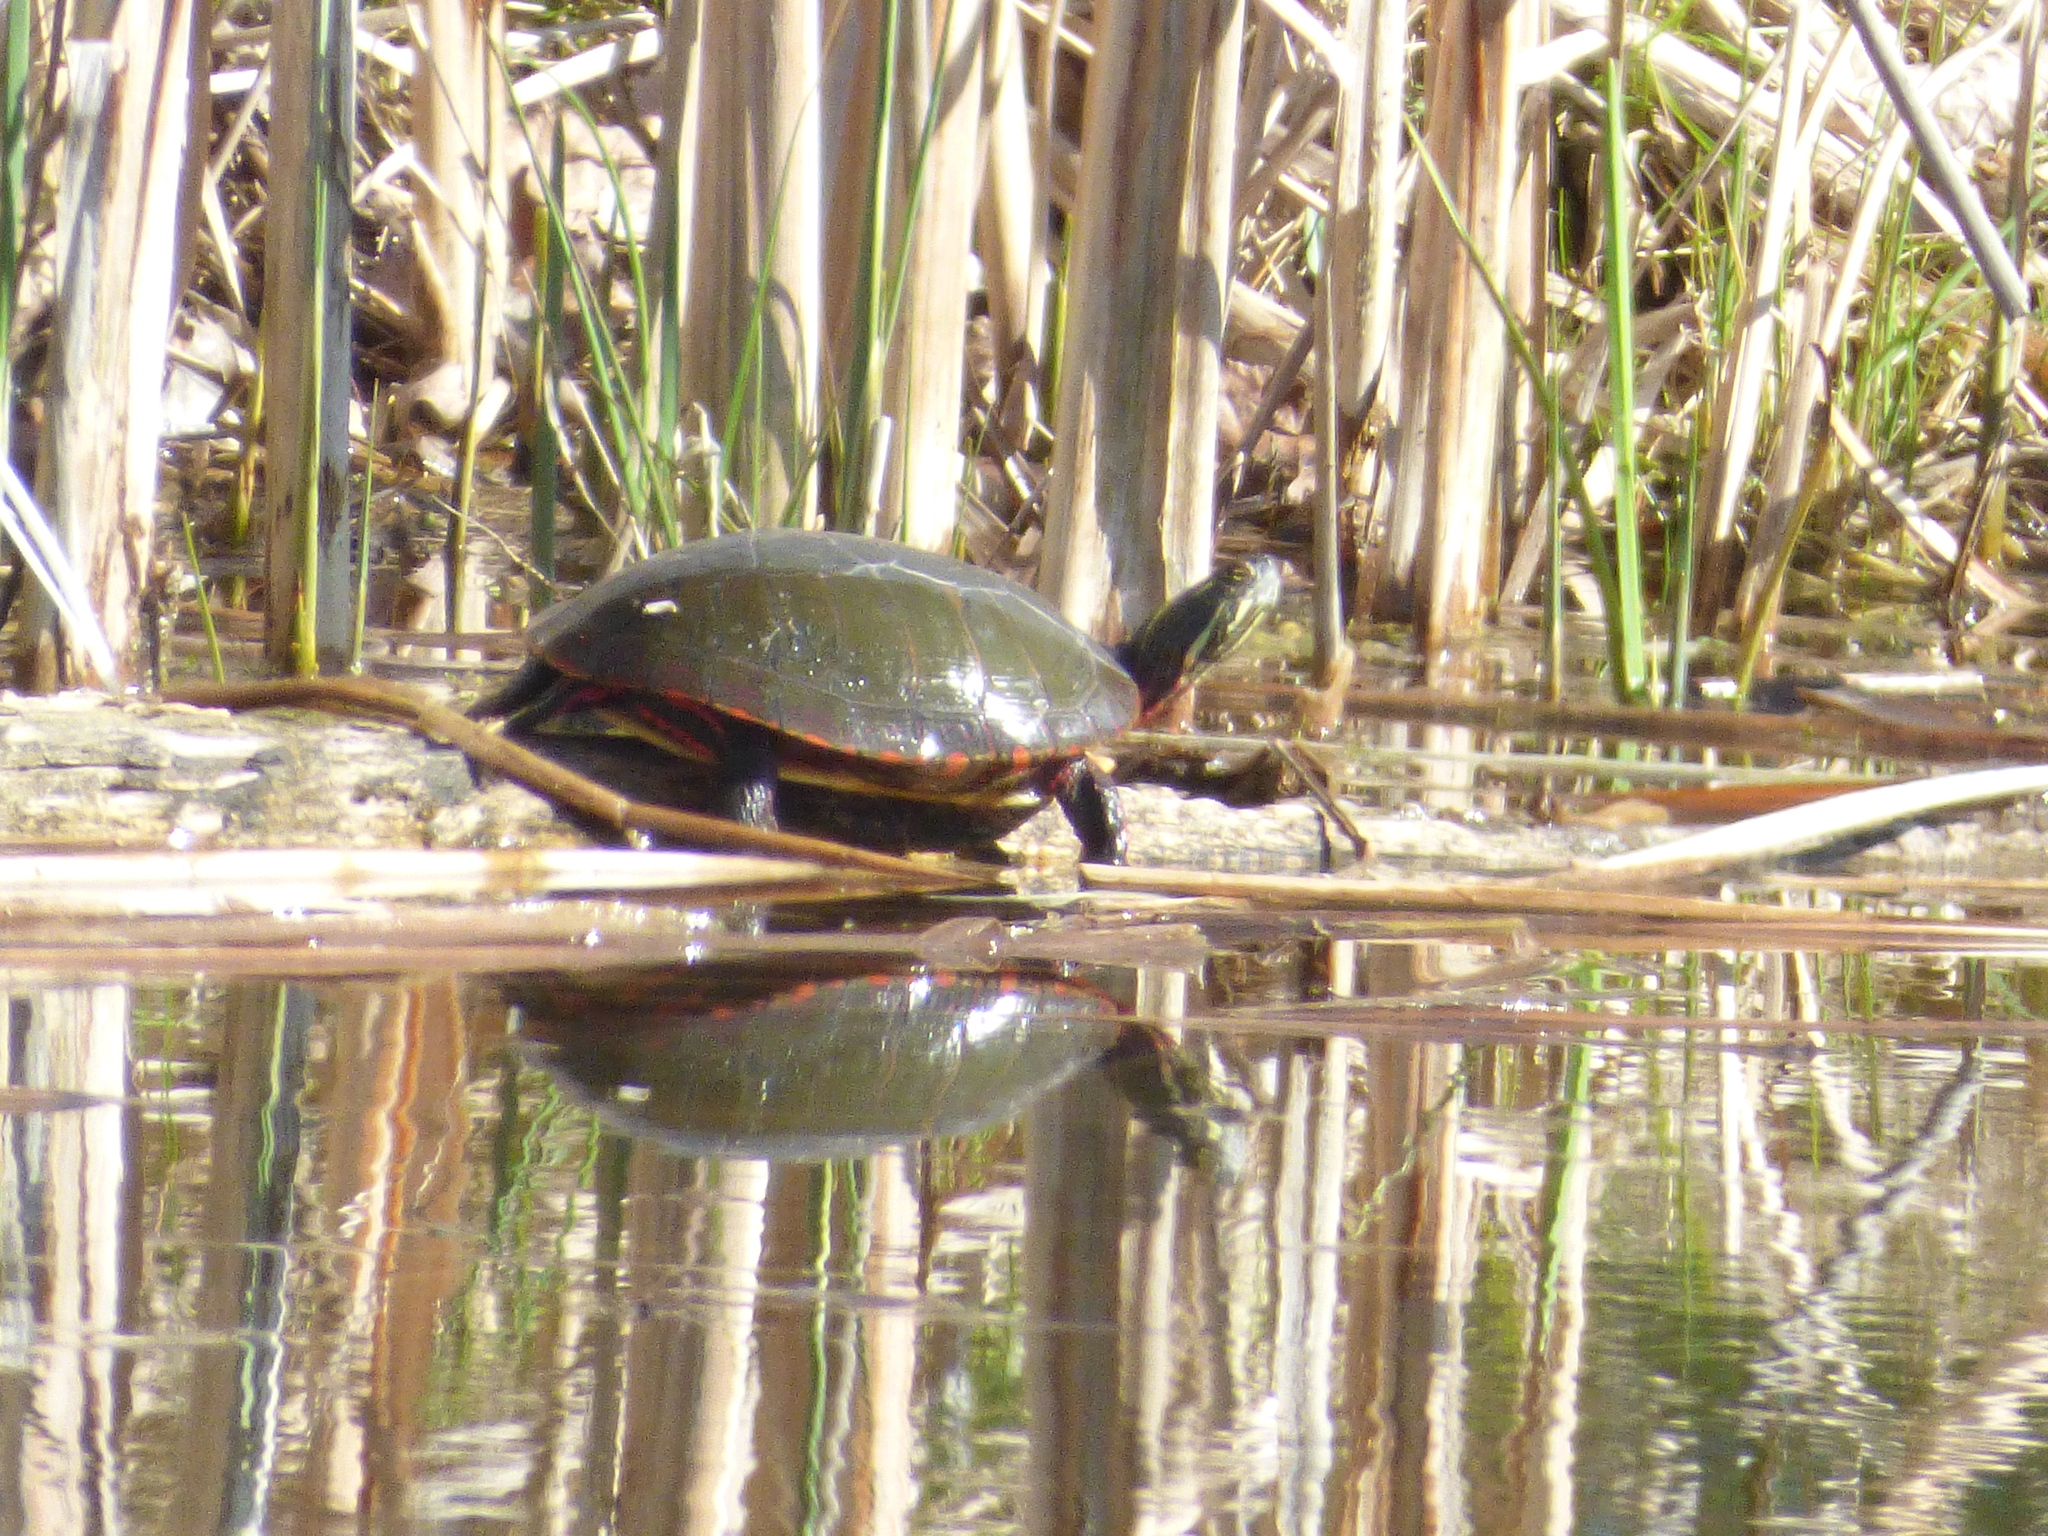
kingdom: Animalia
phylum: Chordata
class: Testudines
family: Emydidae
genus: Chrysemys
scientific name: Chrysemys picta
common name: Painted turtle
